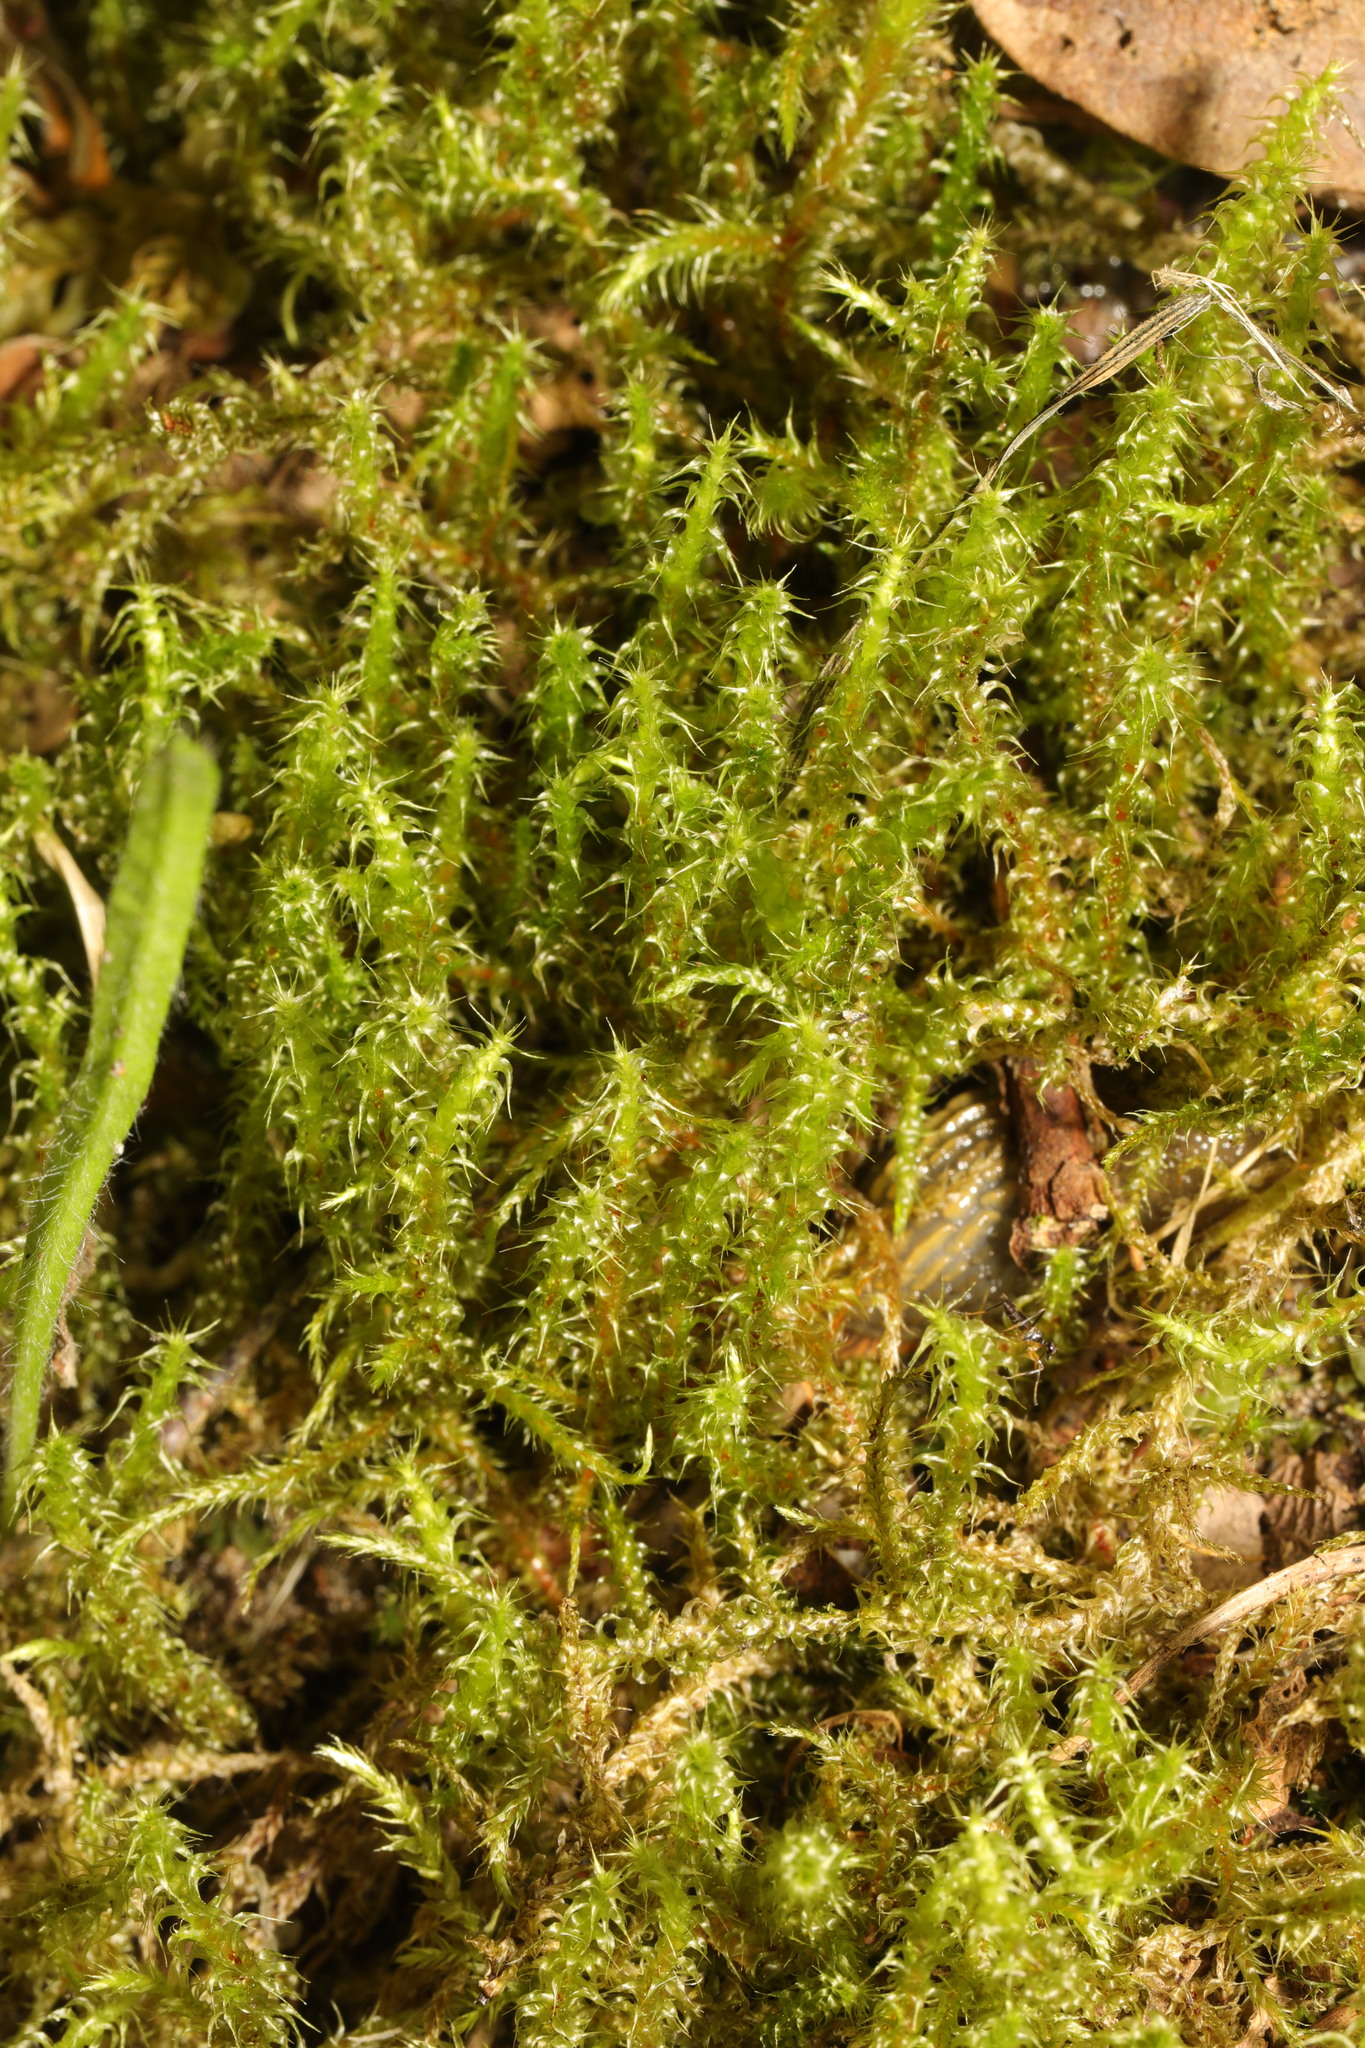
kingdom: Plantae
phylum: Bryophyta
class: Bryopsida
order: Hypnales
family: Hylocomiaceae
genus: Rhytidiadelphus
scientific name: Rhytidiadelphus squarrosus
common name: Springy turf-moss
